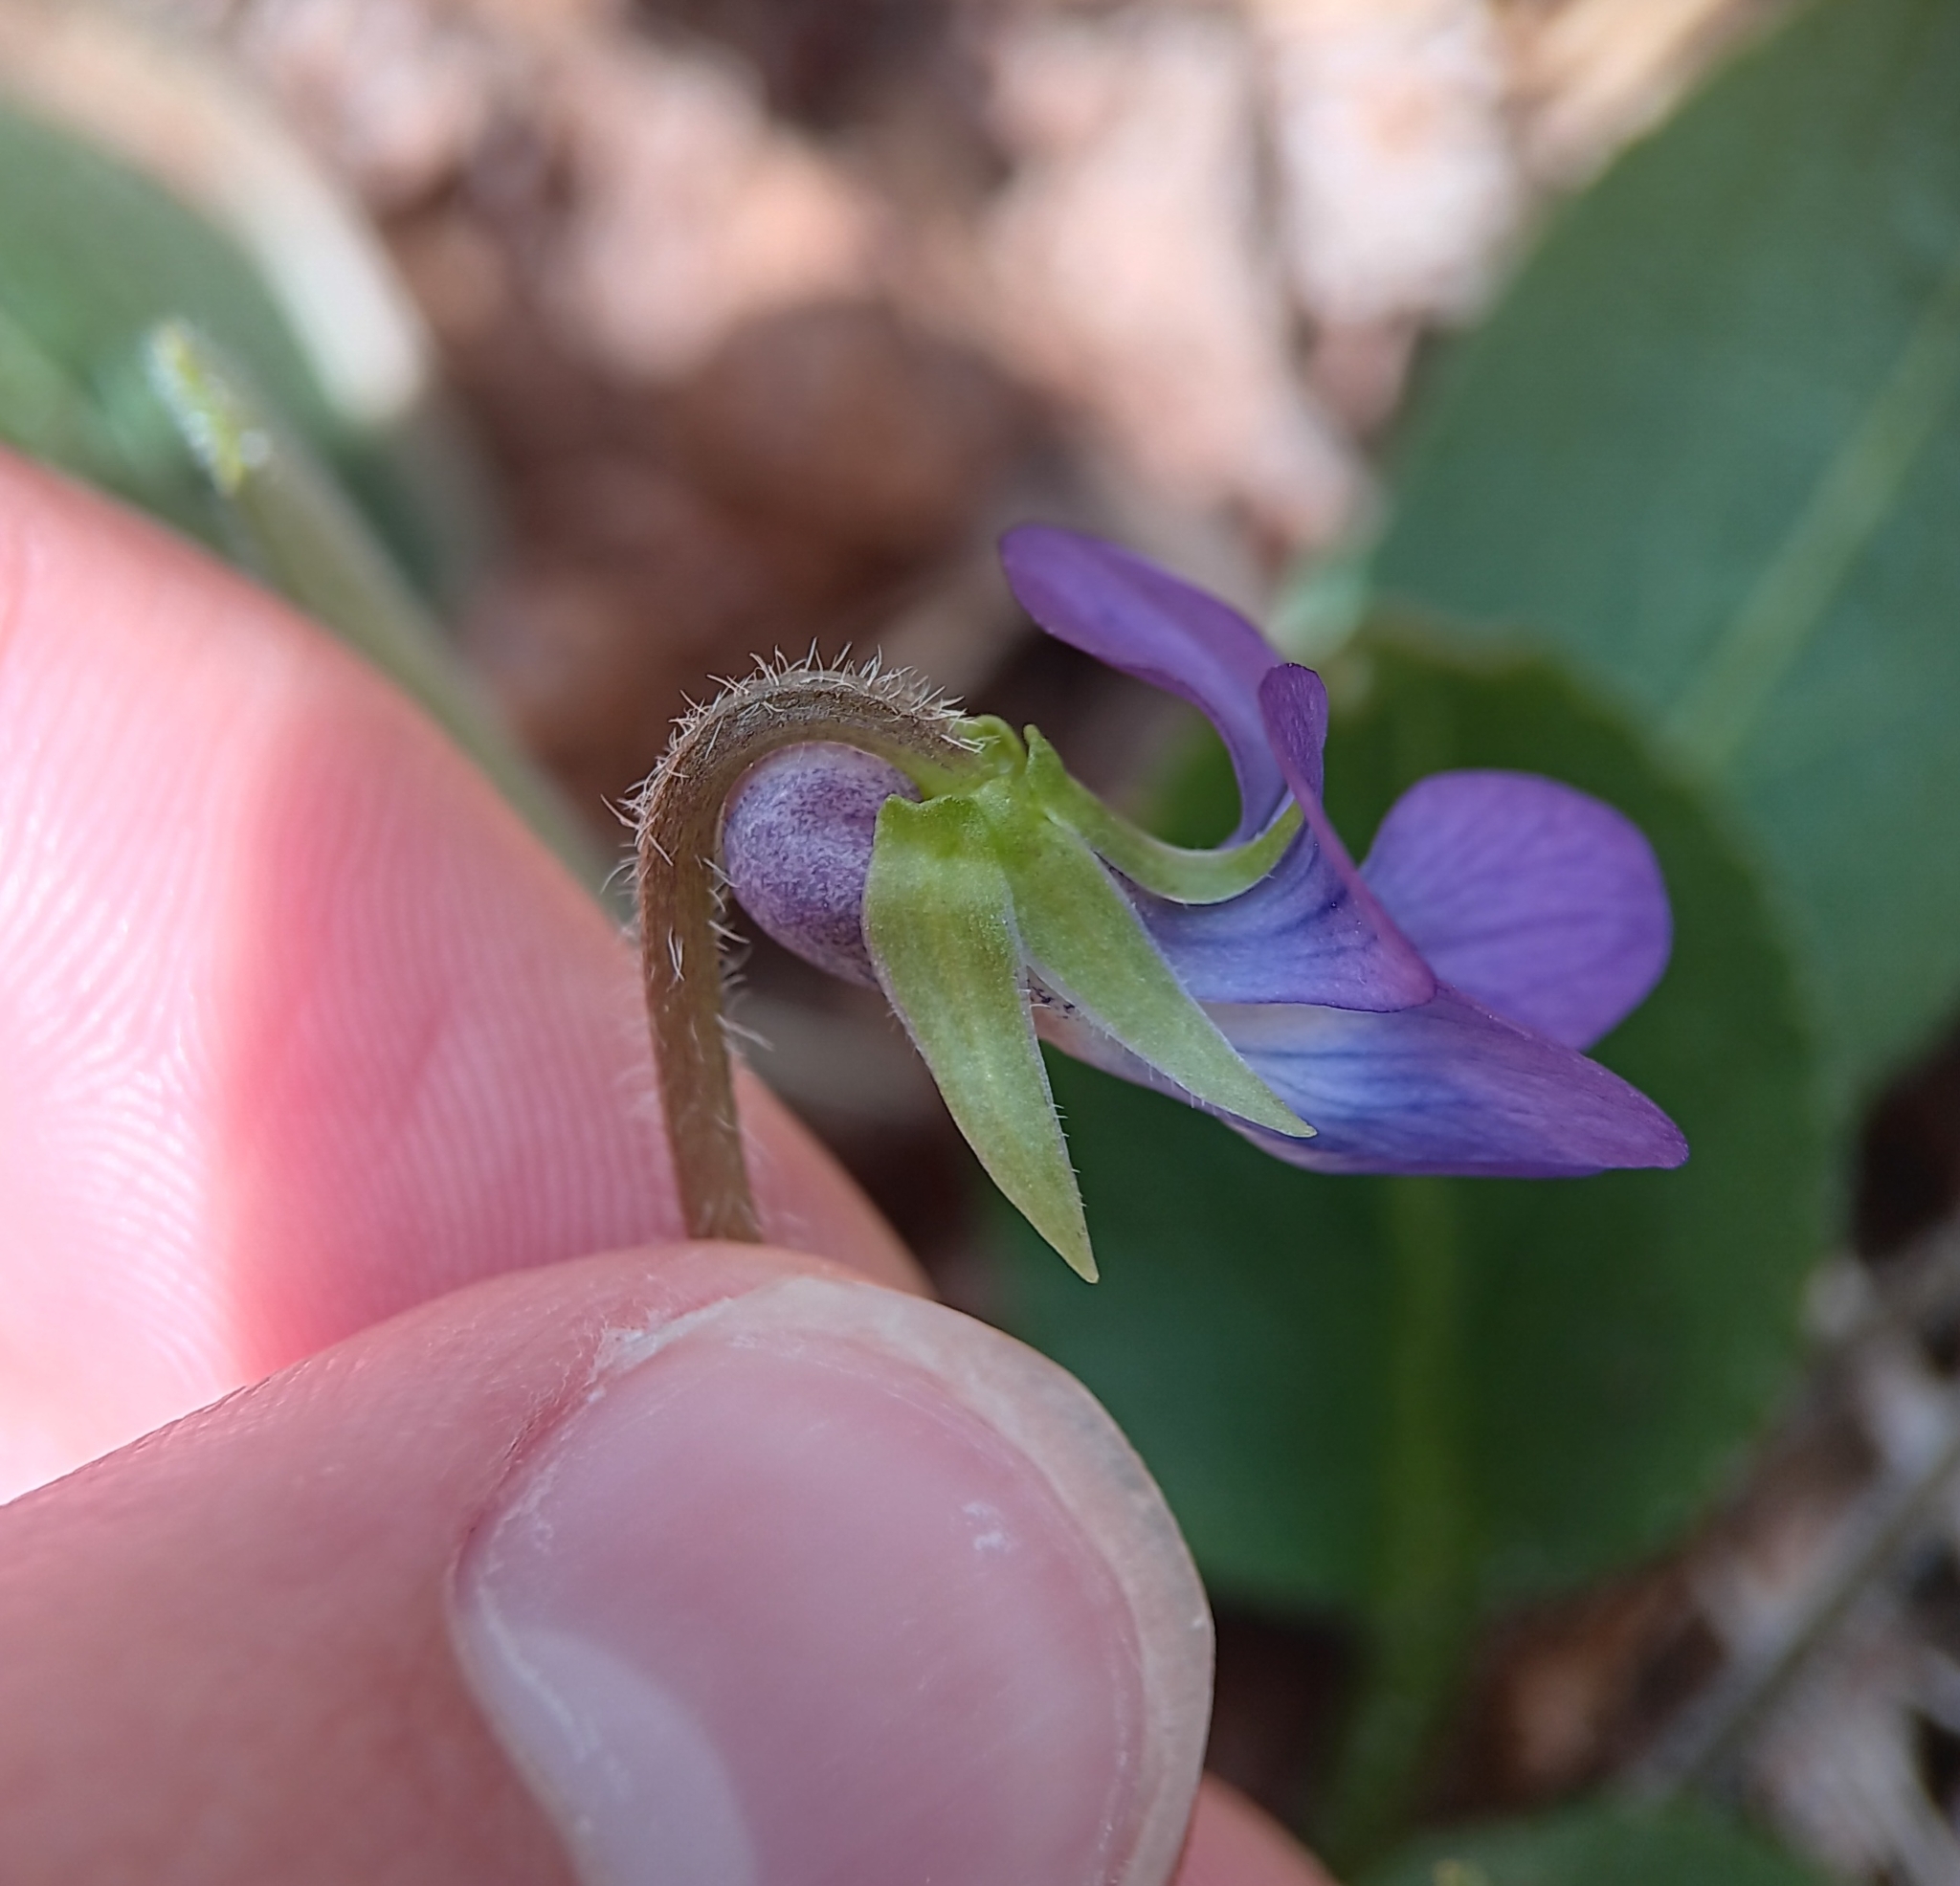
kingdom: Plantae
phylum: Tracheophyta
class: Magnoliopsida
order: Malpighiales
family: Violaceae
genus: Viola
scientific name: Viola sagittata
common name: Arrowhead violet
